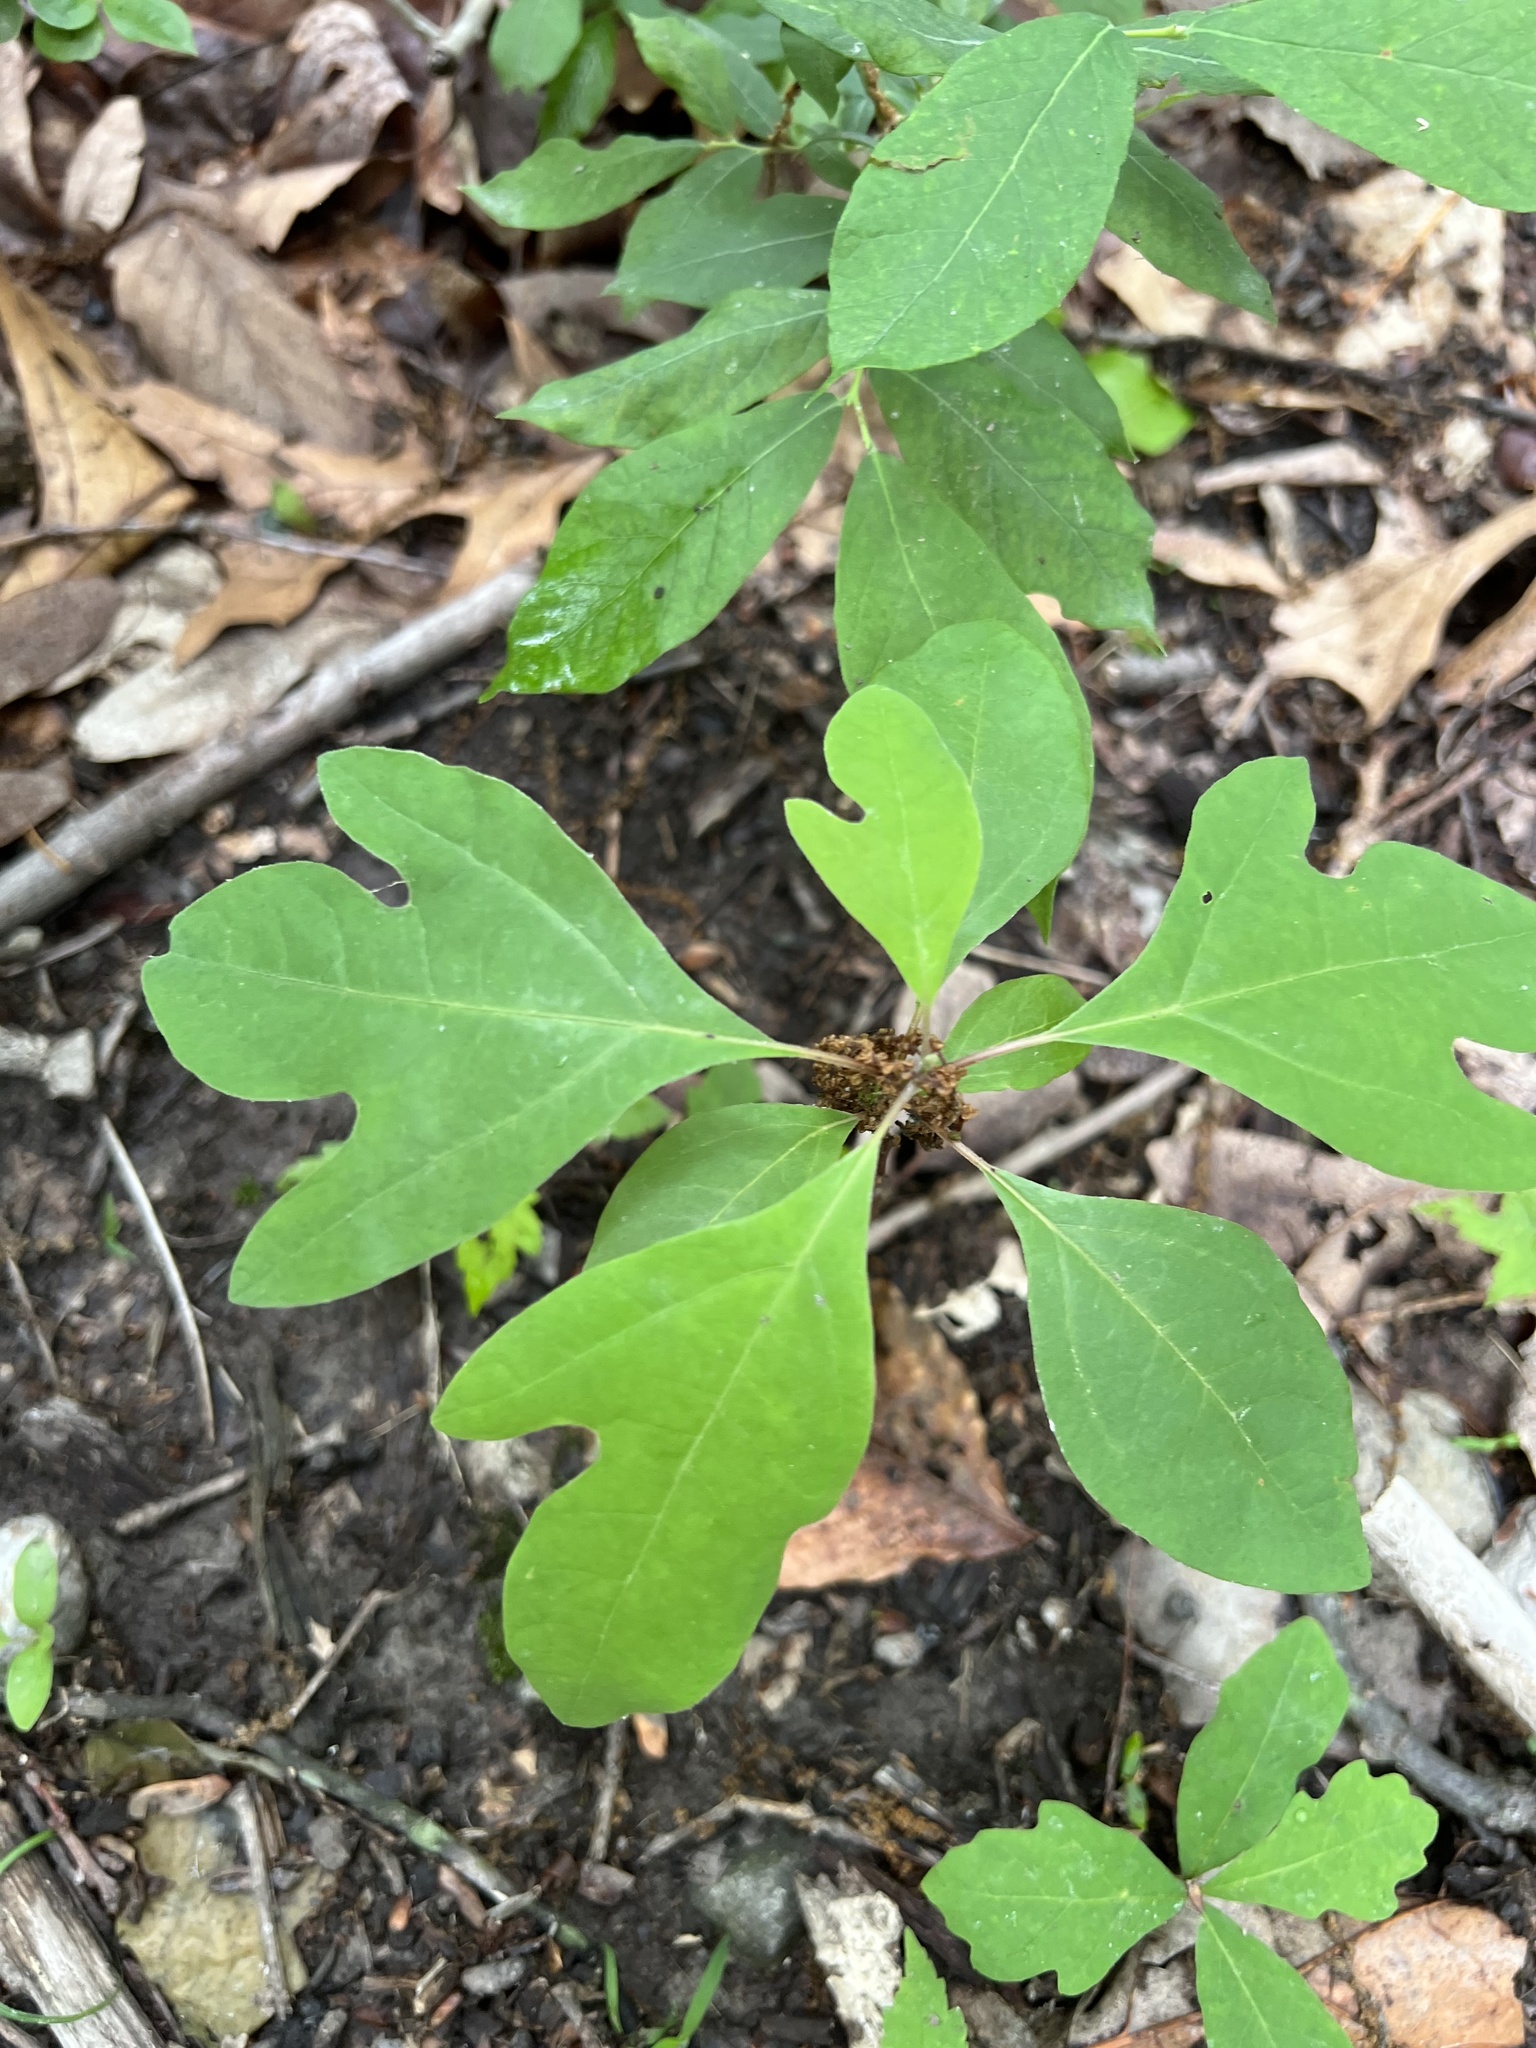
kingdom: Plantae
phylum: Tracheophyta
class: Magnoliopsida
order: Laurales
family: Lauraceae
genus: Sassafras
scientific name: Sassafras albidum
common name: Sassafras
